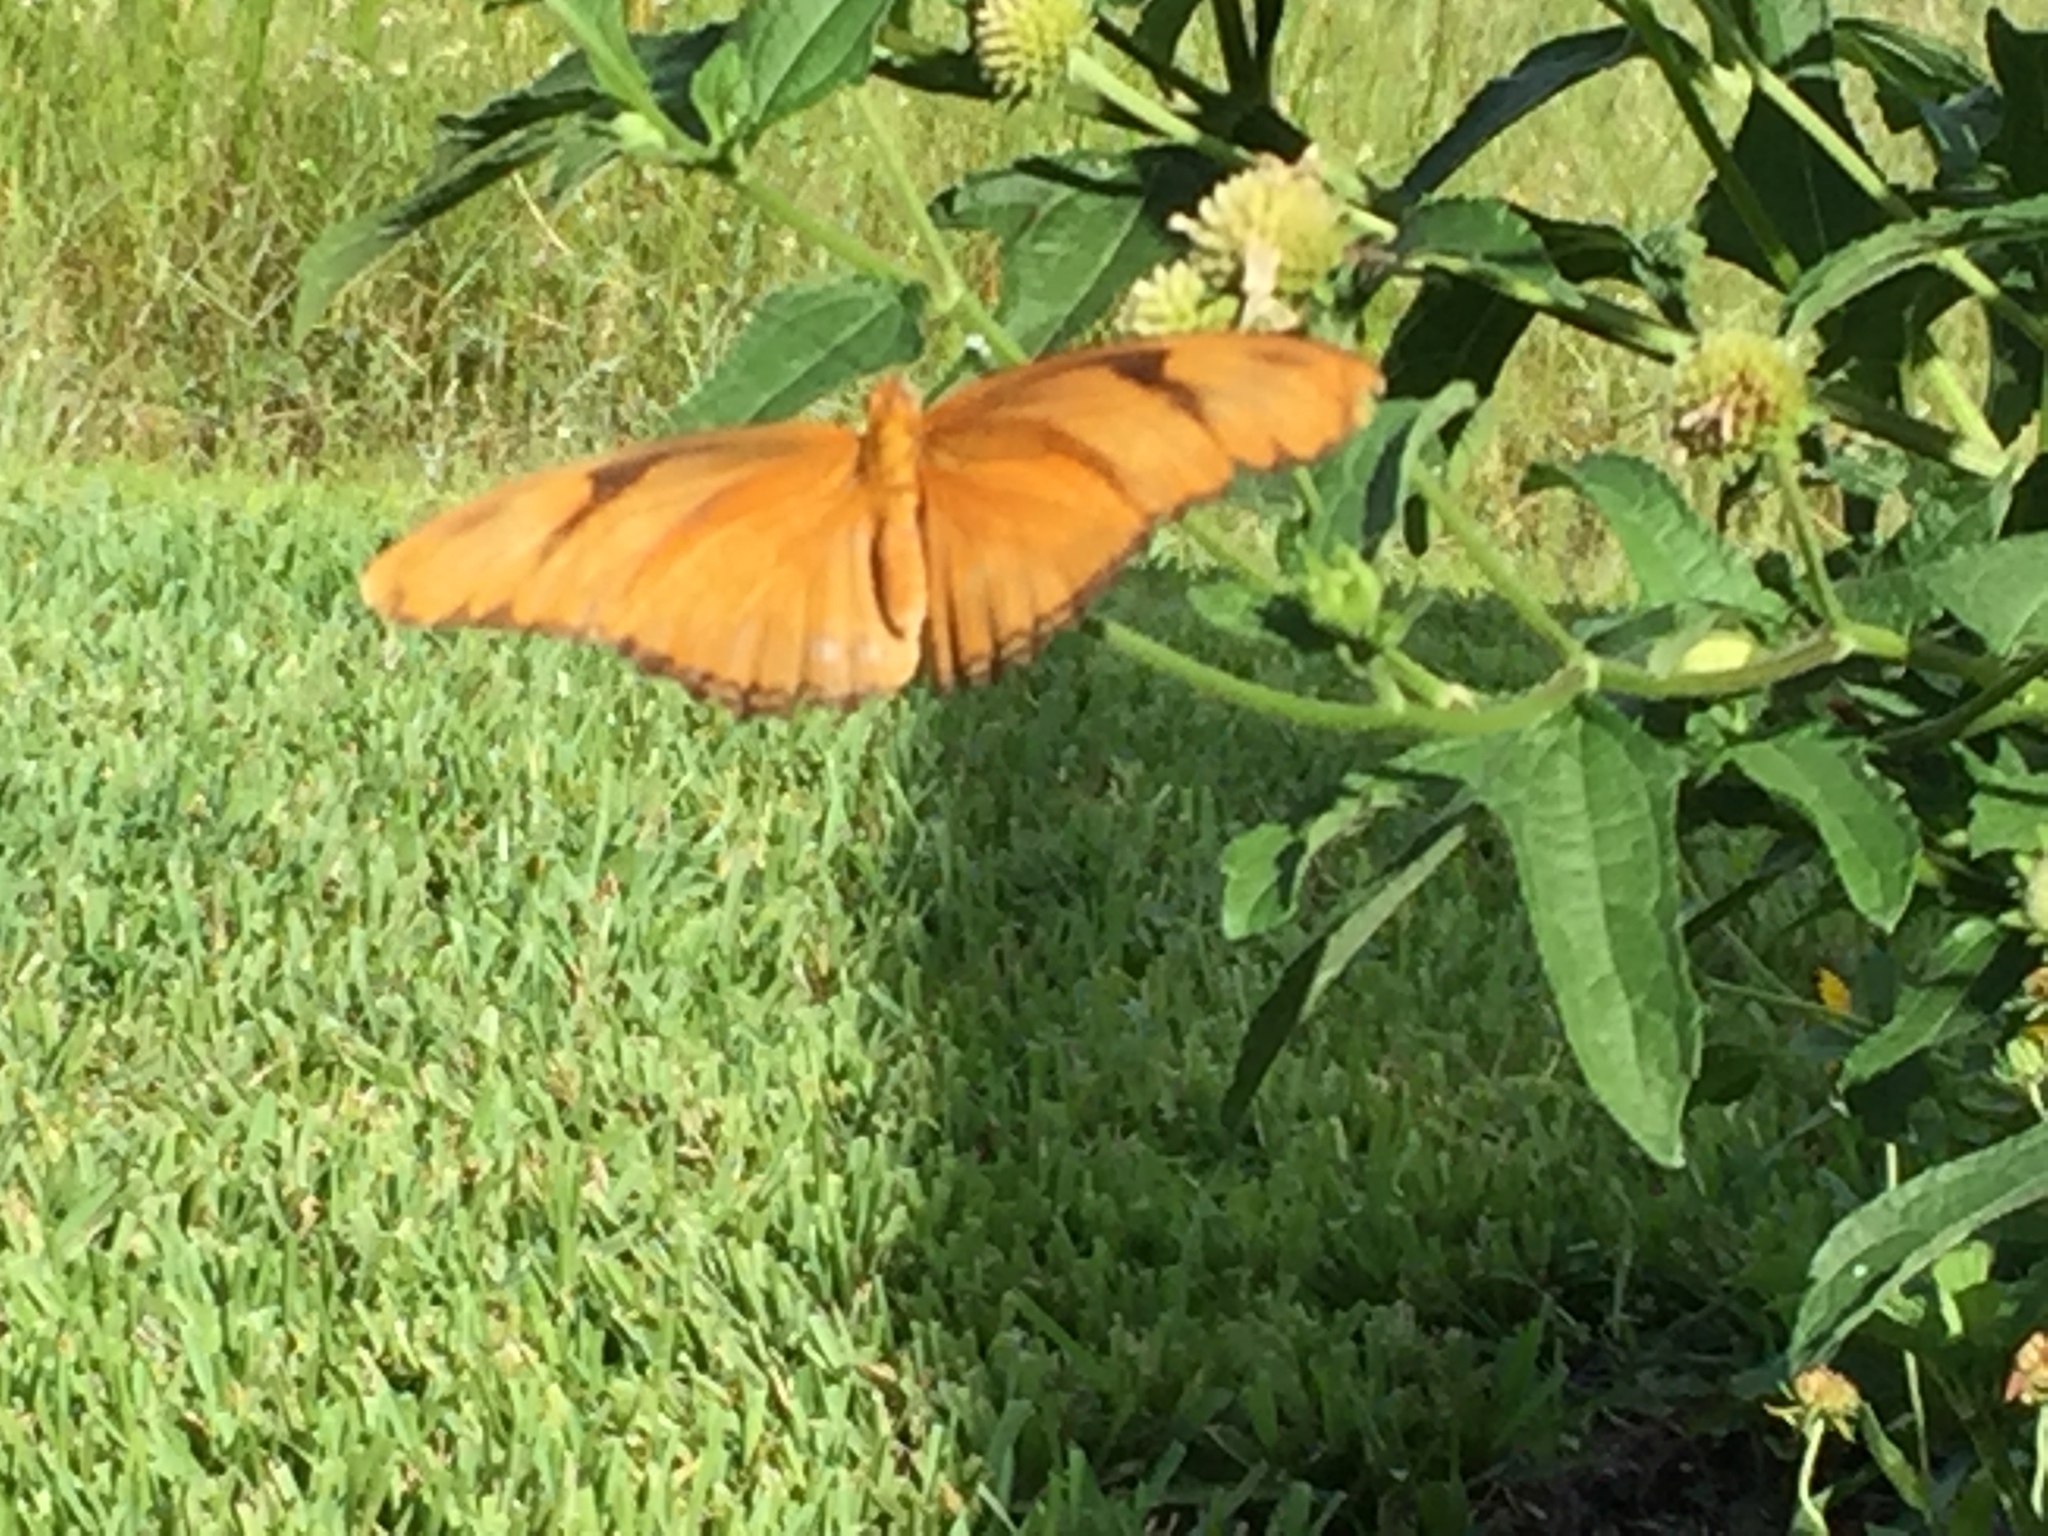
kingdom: Animalia
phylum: Arthropoda
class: Insecta
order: Lepidoptera
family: Nymphalidae
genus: Dryas
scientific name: Dryas iulia
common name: Flambeau
